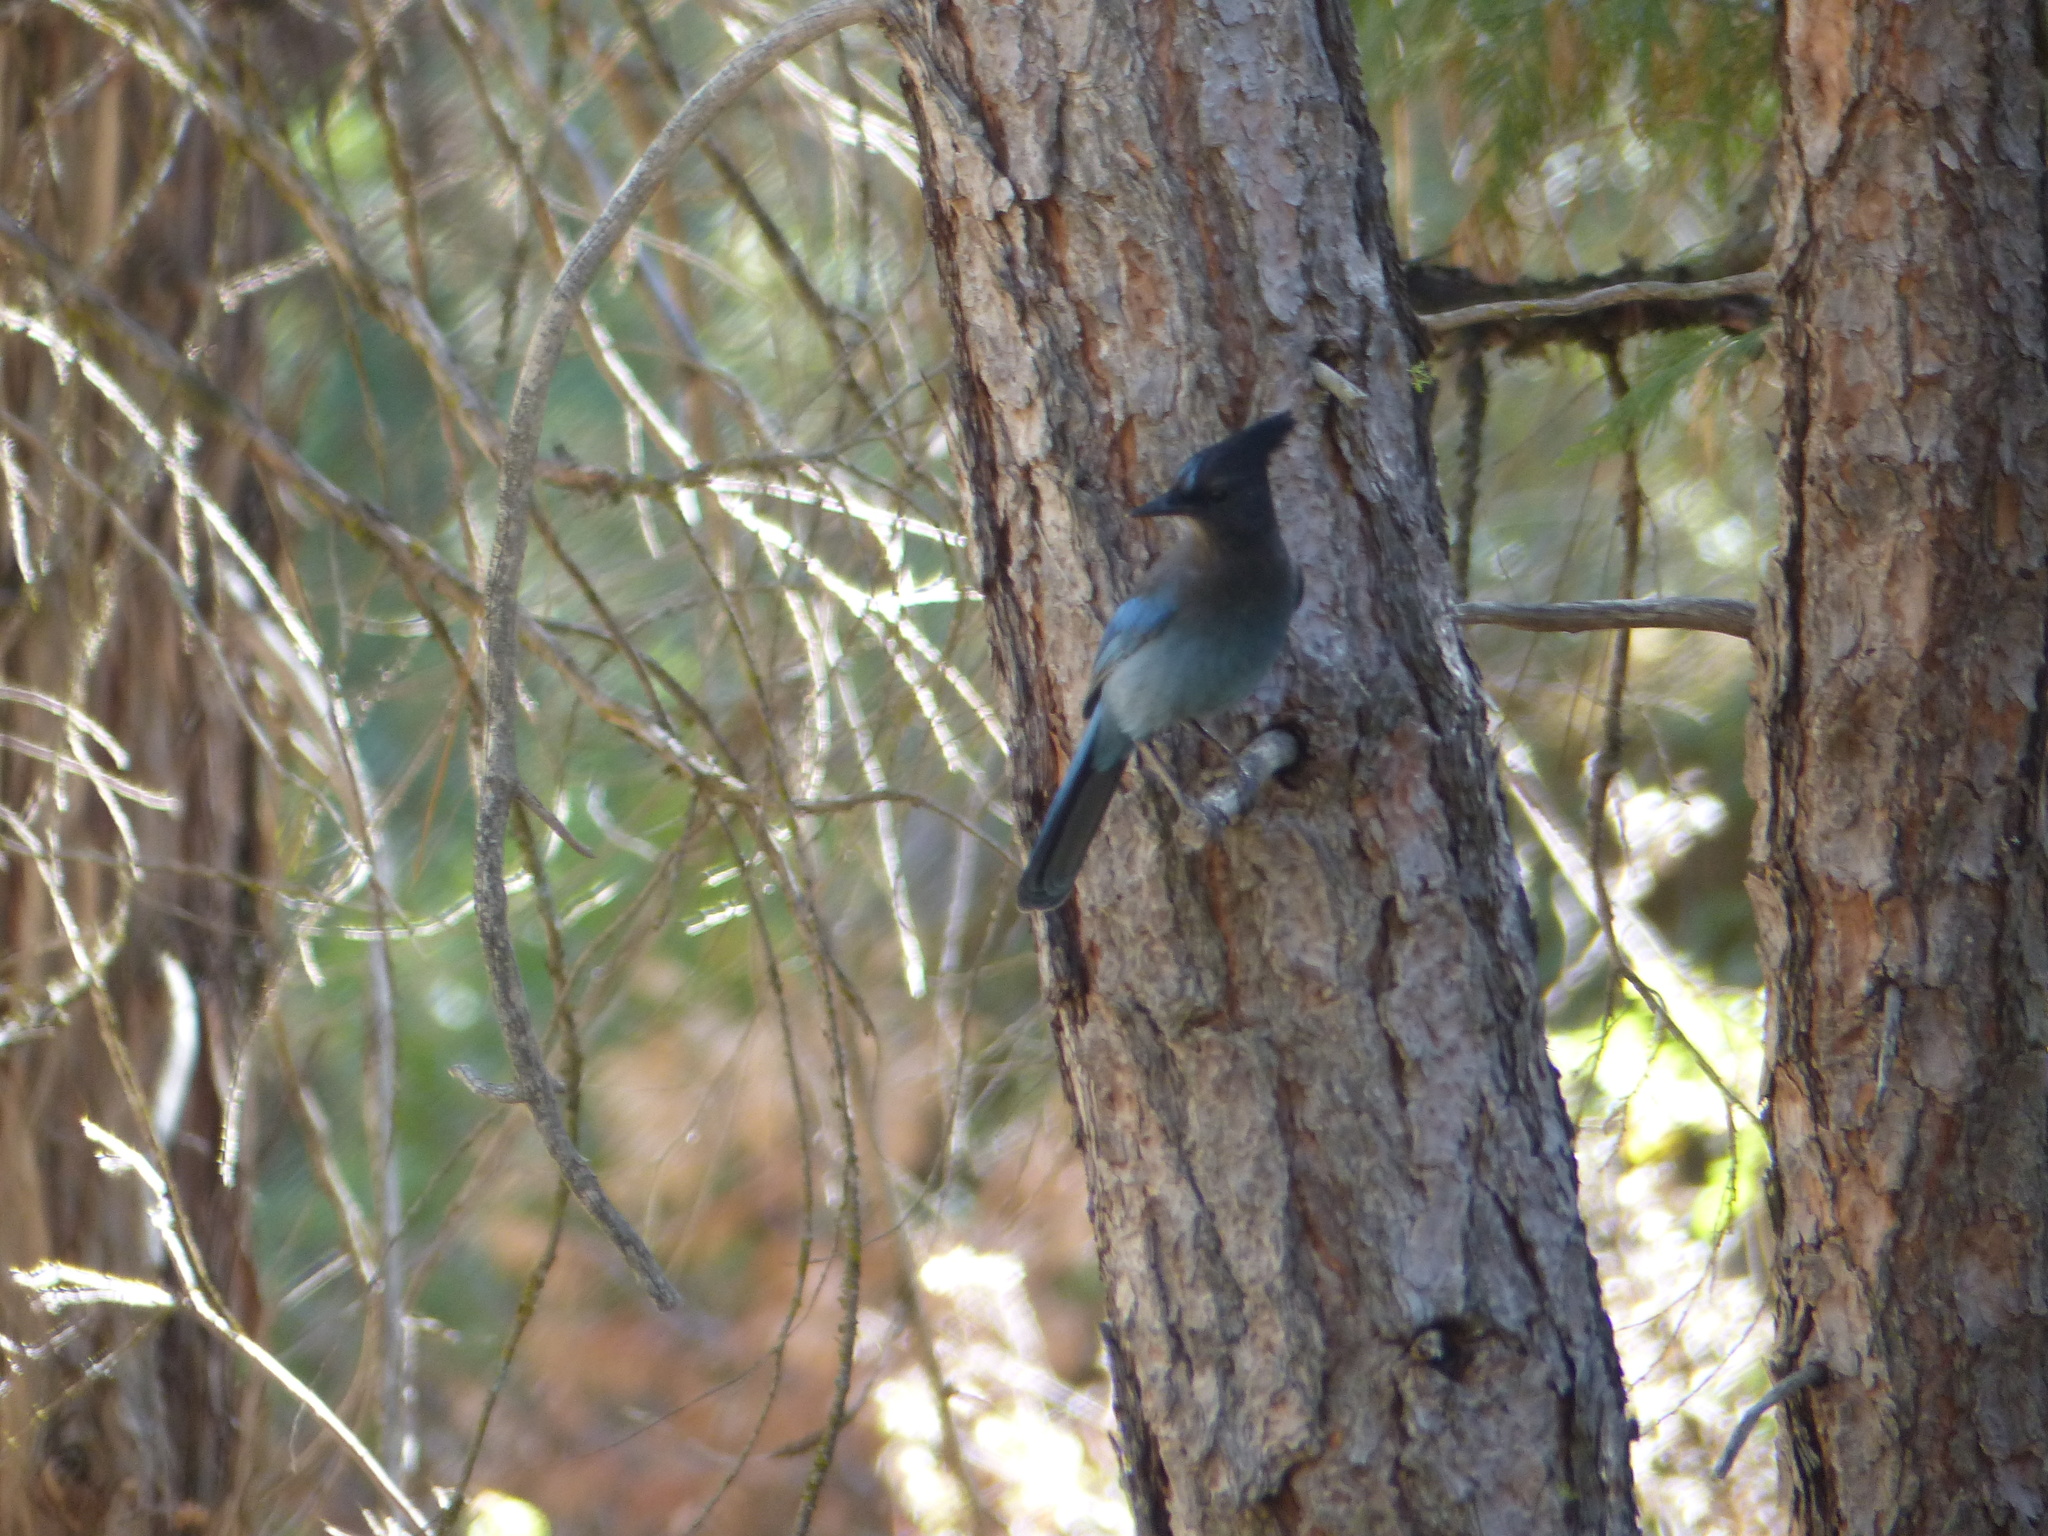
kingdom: Animalia
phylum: Chordata
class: Aves
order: Passeriformes
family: Corvidae
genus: Cyanocitta
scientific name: Cyanocitta stelleri
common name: Steller's jay
